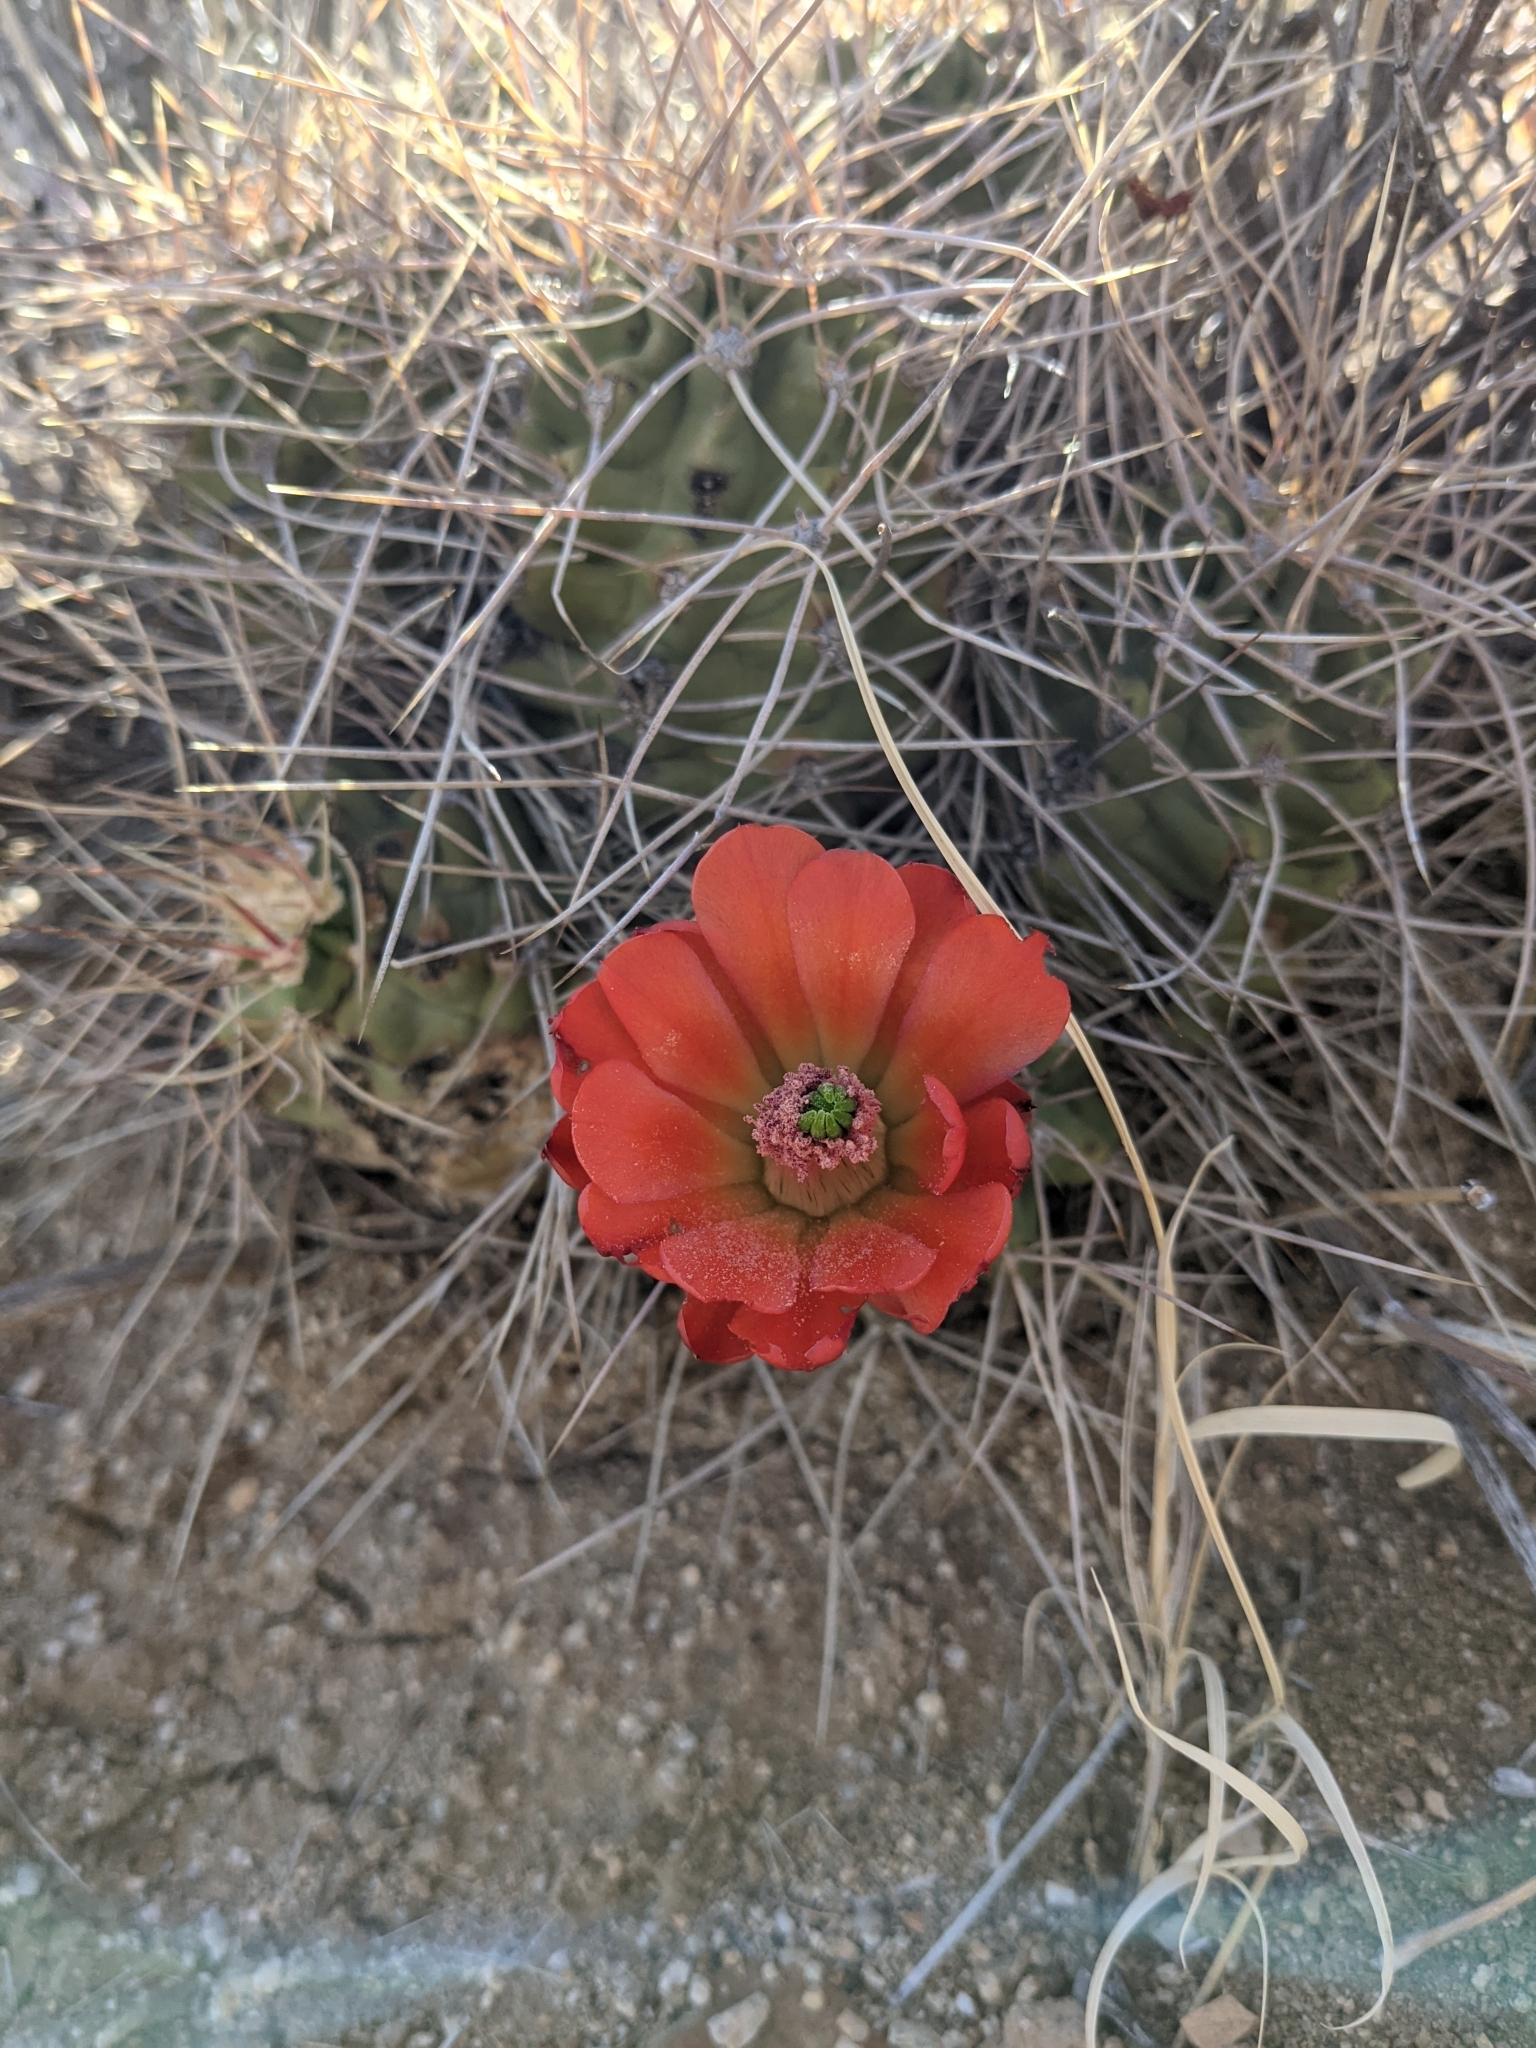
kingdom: Plantae
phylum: Tracheophyta
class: Magnoliopsida
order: Caryophyllales
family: Cactaceae
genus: Echinocereus
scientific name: Echinocereus triglochidiatus
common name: Claretcup hedgehog
